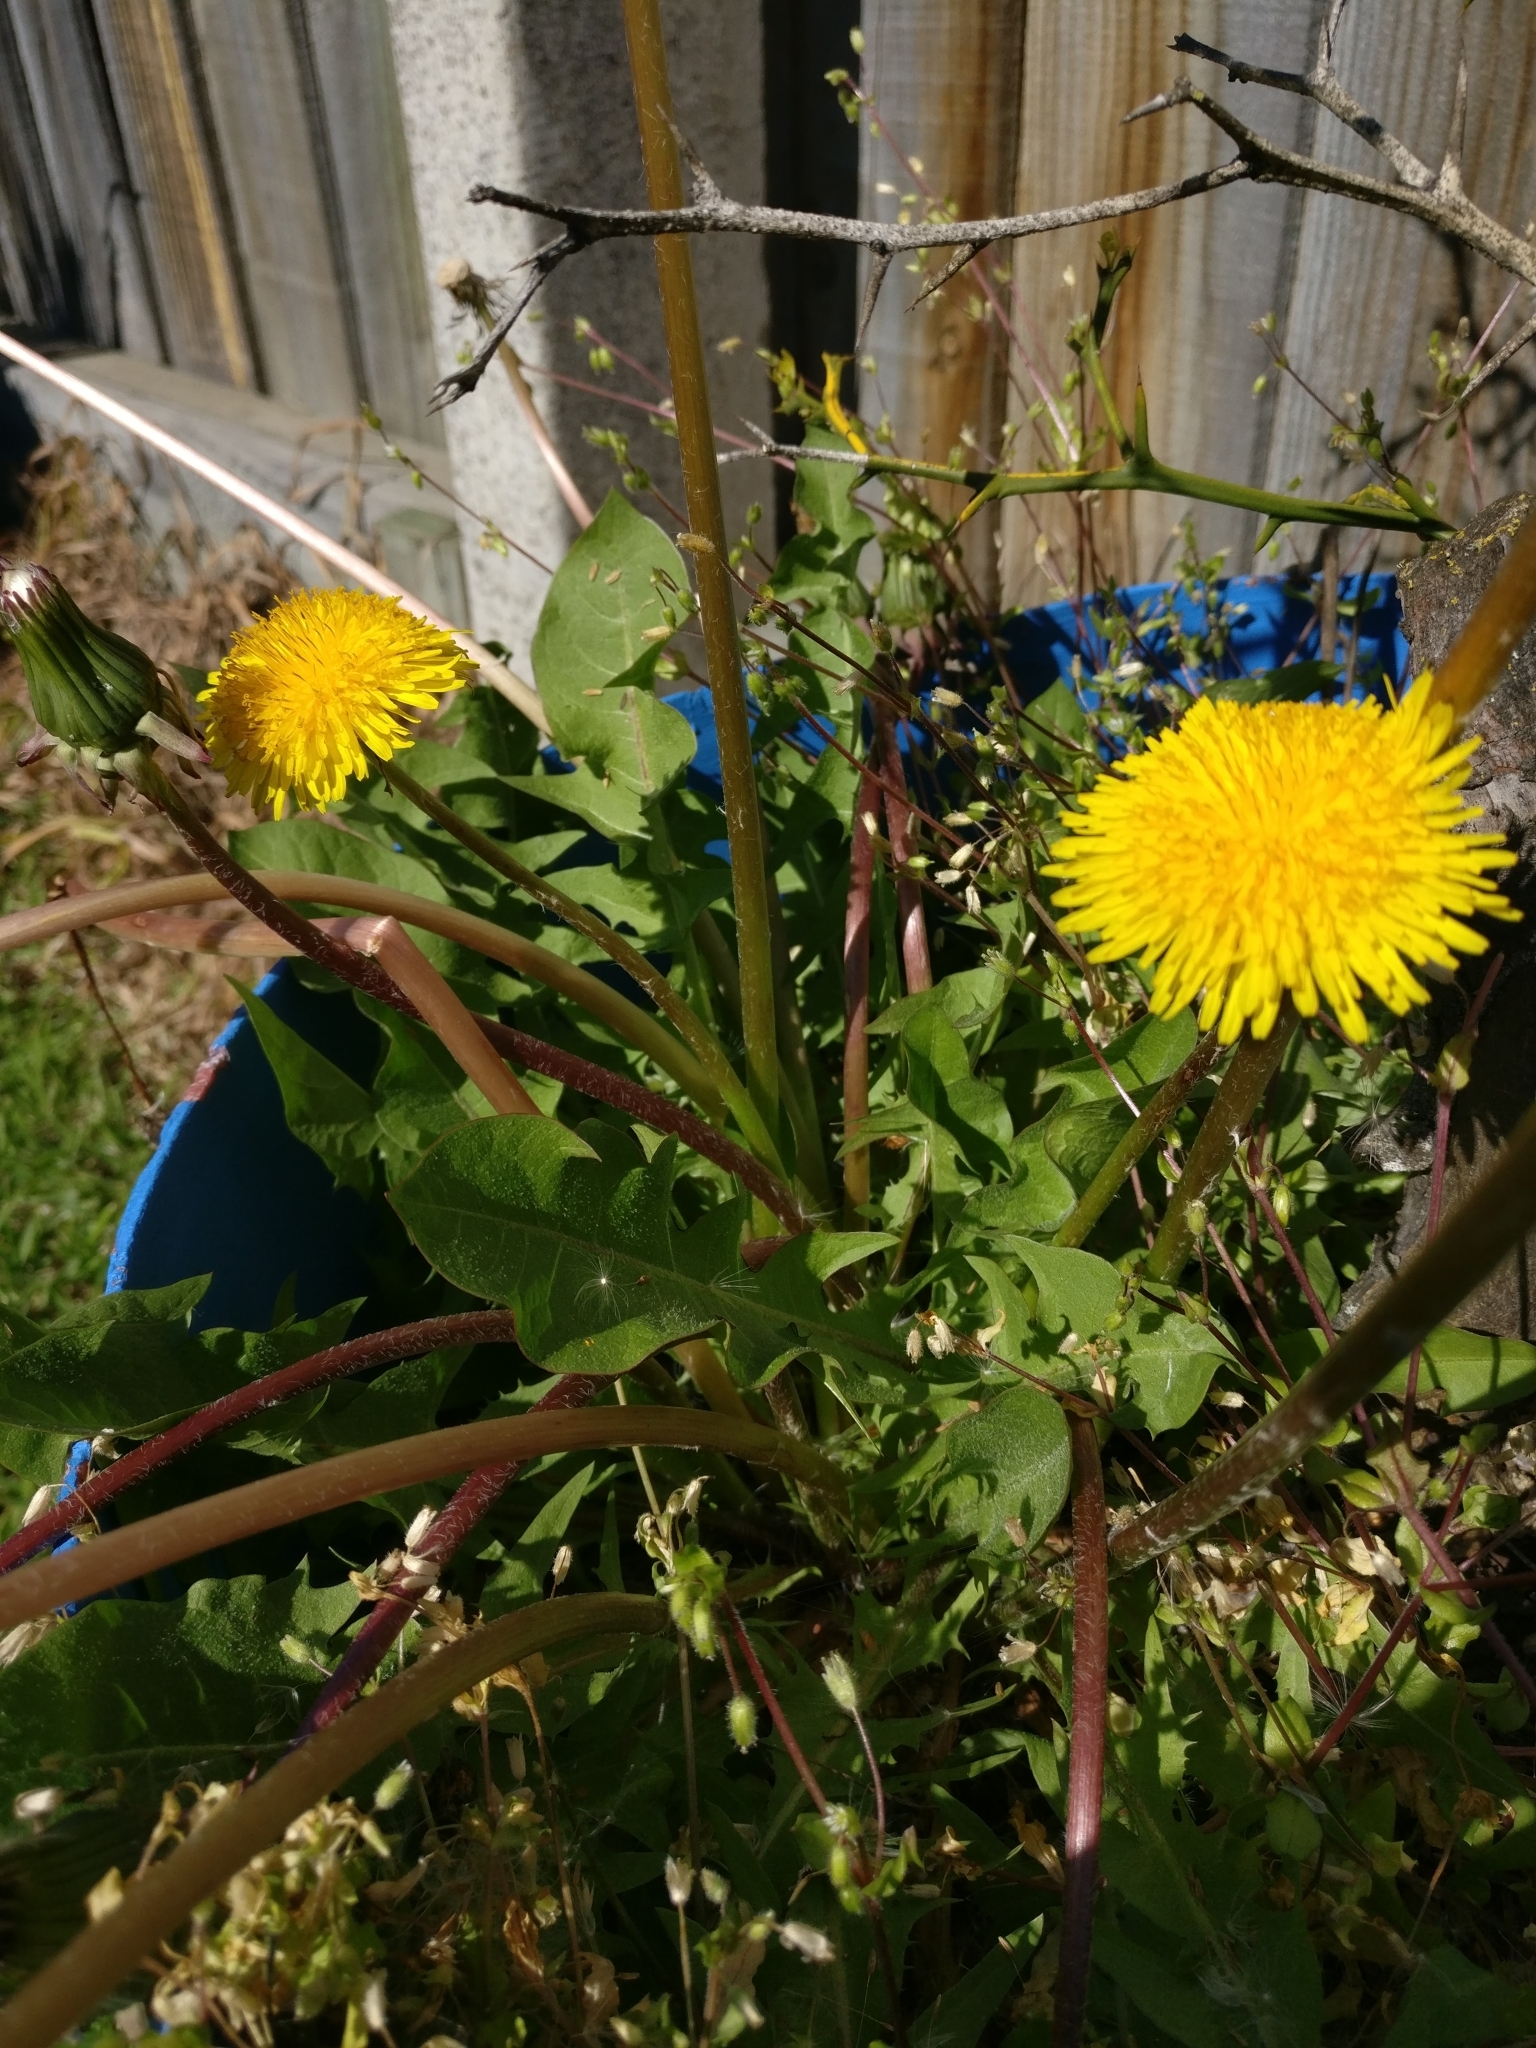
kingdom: Plantae
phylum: Tracheophyta
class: Magnoliopsida
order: Asterales
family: Asteraceae
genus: Taraxacum
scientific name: Taraxacum officinale
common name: Common dandelion
